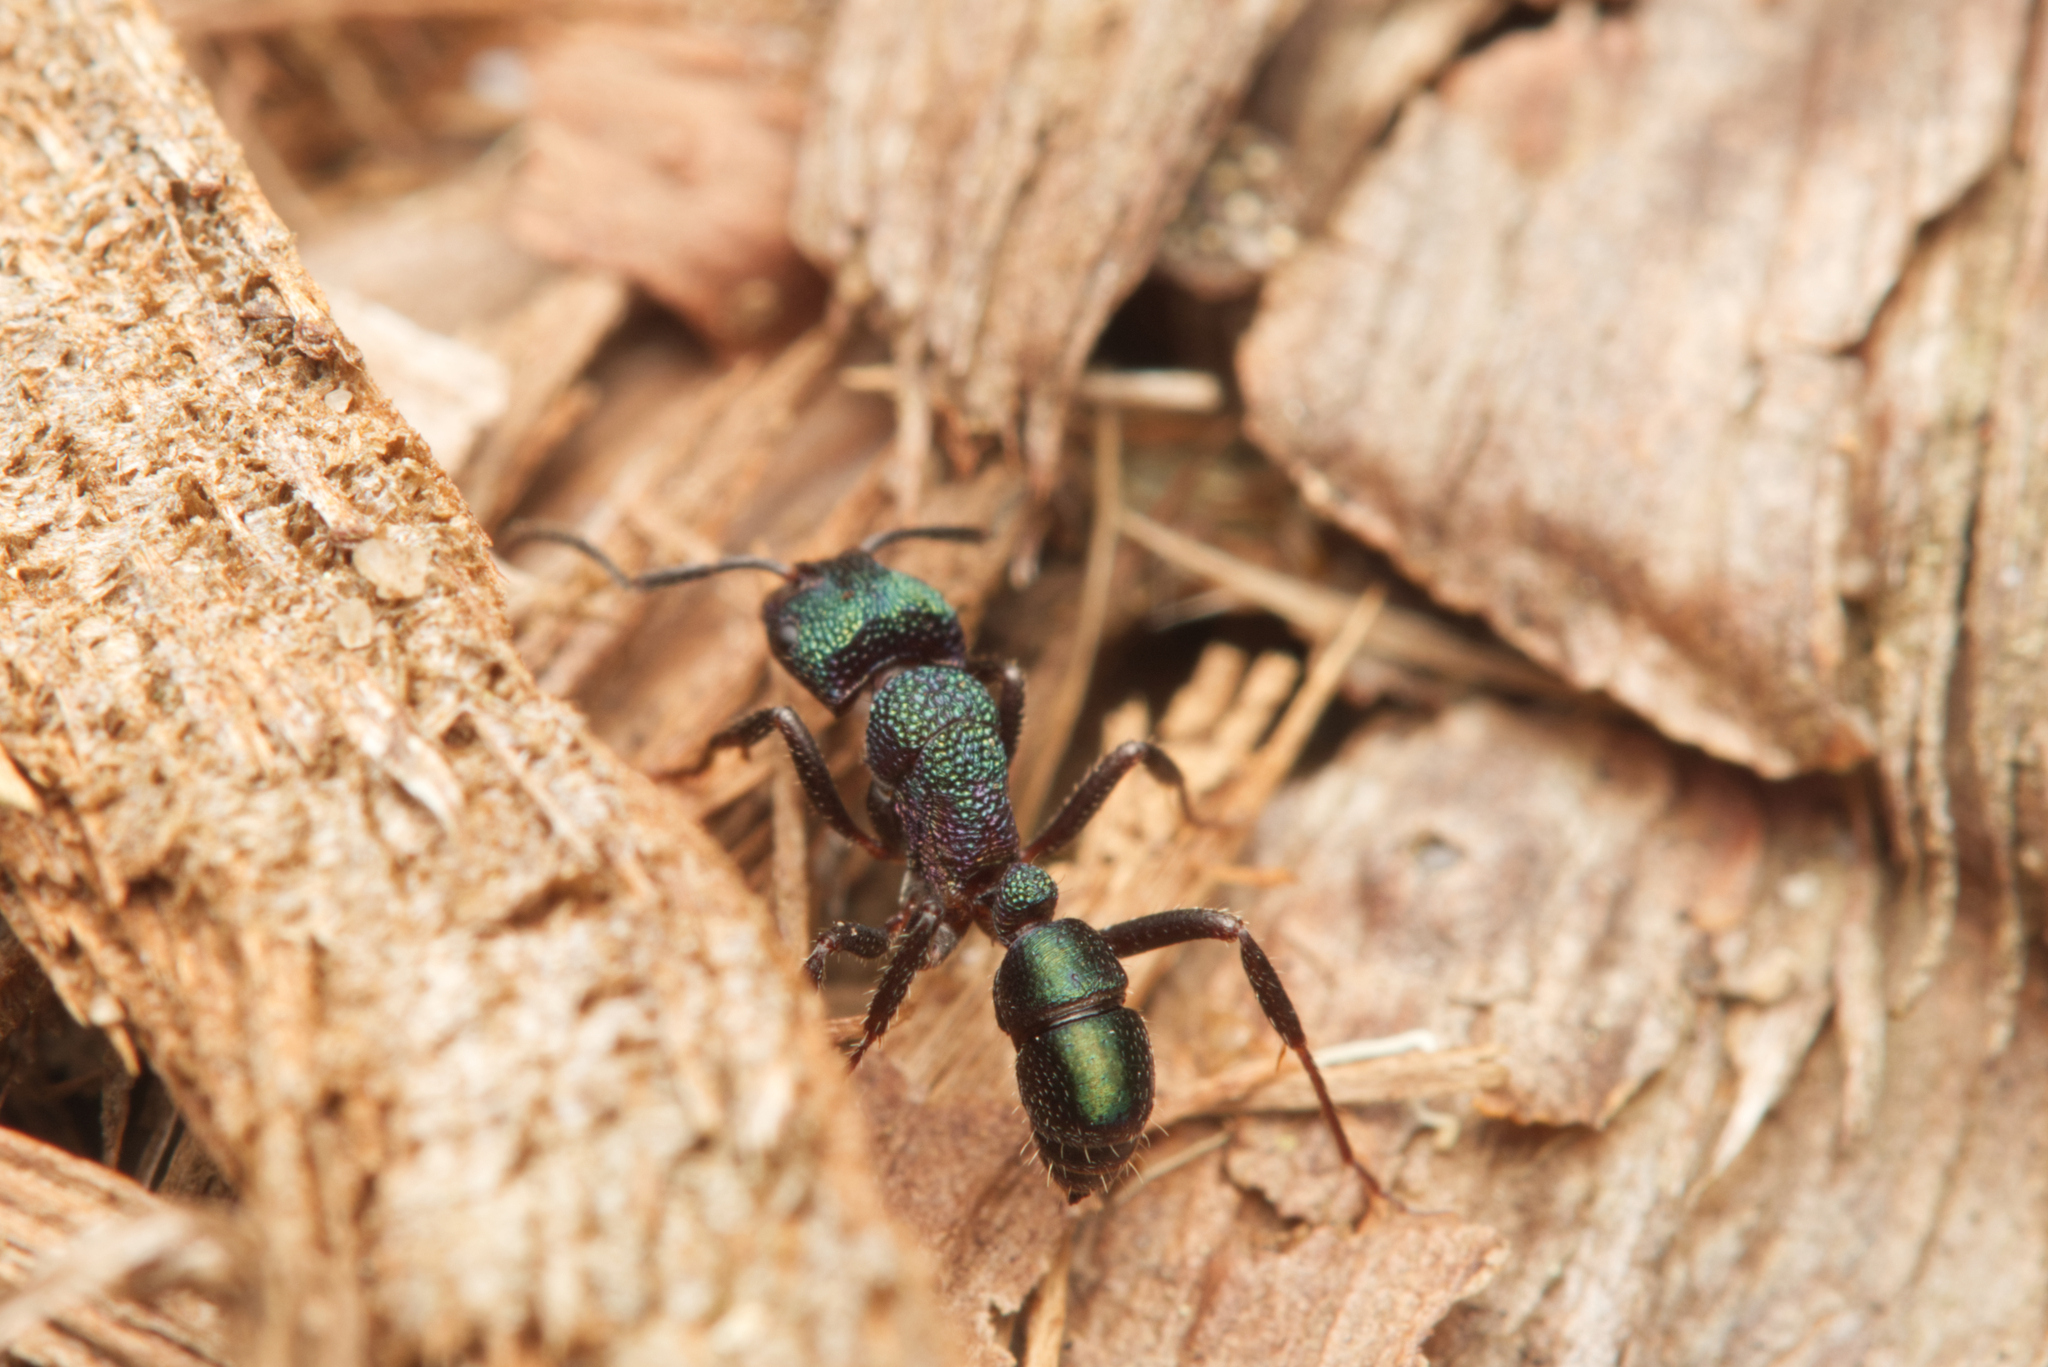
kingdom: Animalia
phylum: Arthropoda
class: Insecta
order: Hymenoptera
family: Formicidae
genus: Rhytidoponera
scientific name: Rhytidoponera metallica
